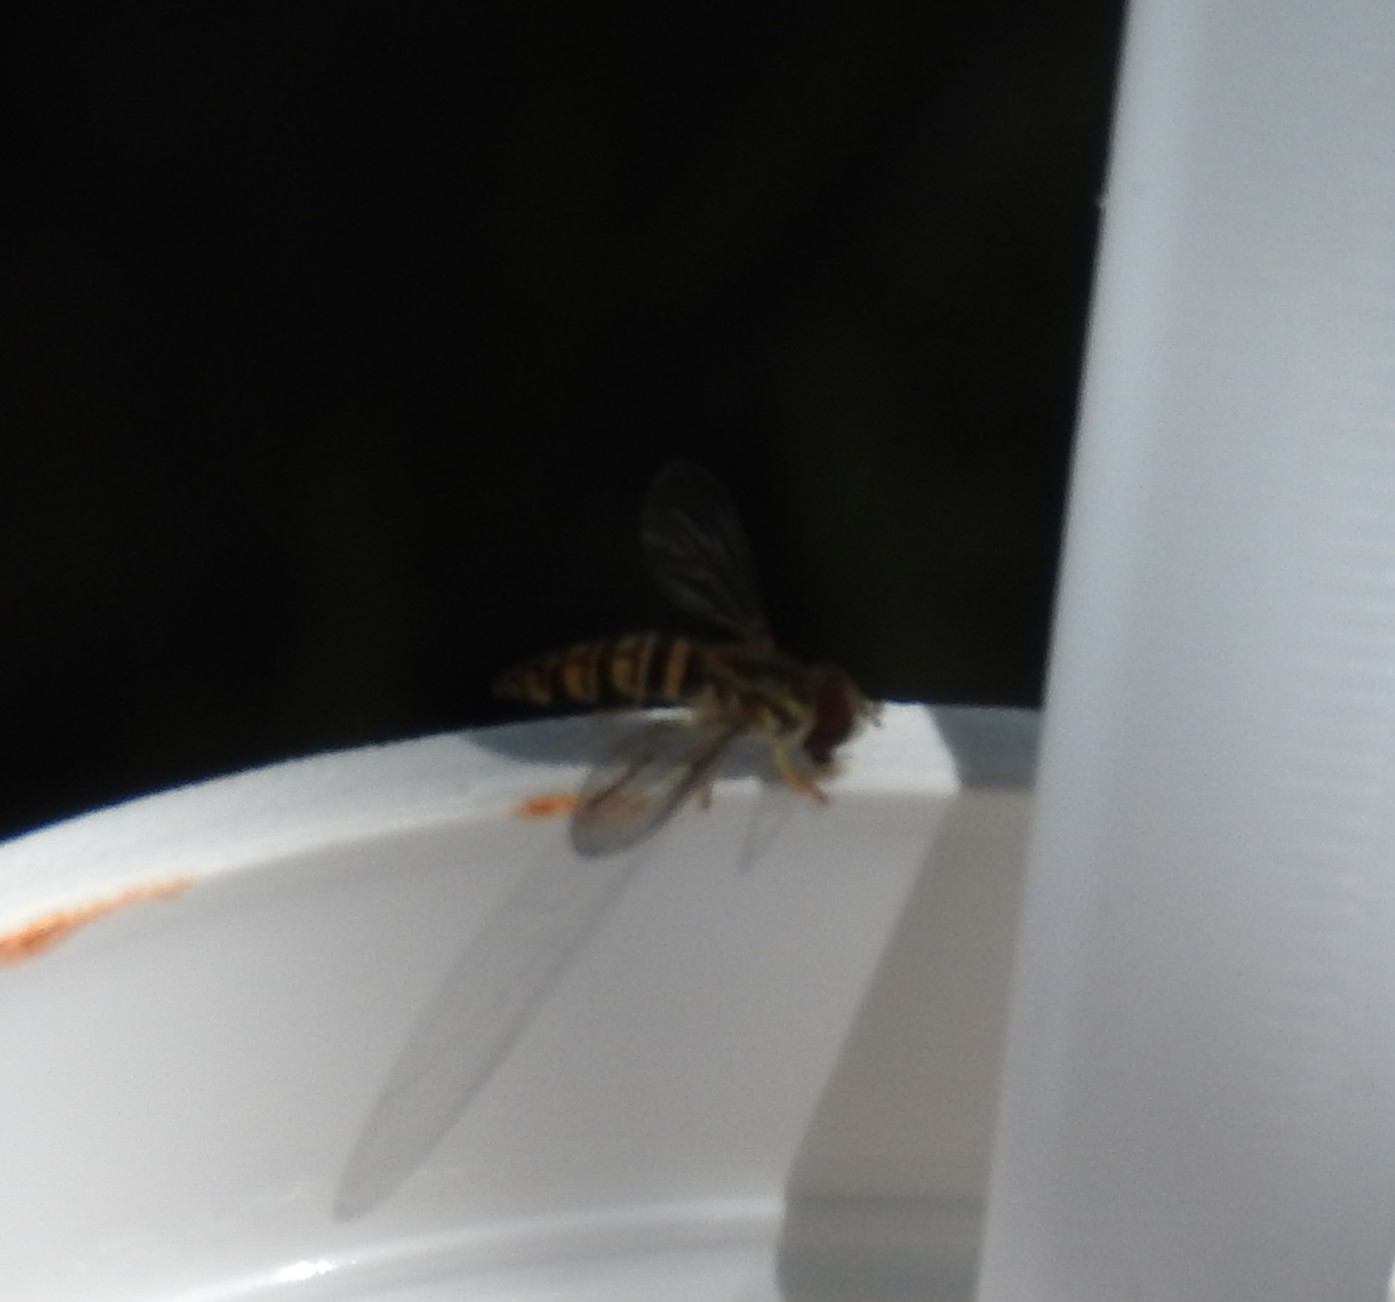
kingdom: Animalia
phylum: Arthropoda
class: Insecta
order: Diptera
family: Syrphidae
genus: Toxomerus
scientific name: Toxomerus politus
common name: Maize calligrapher
